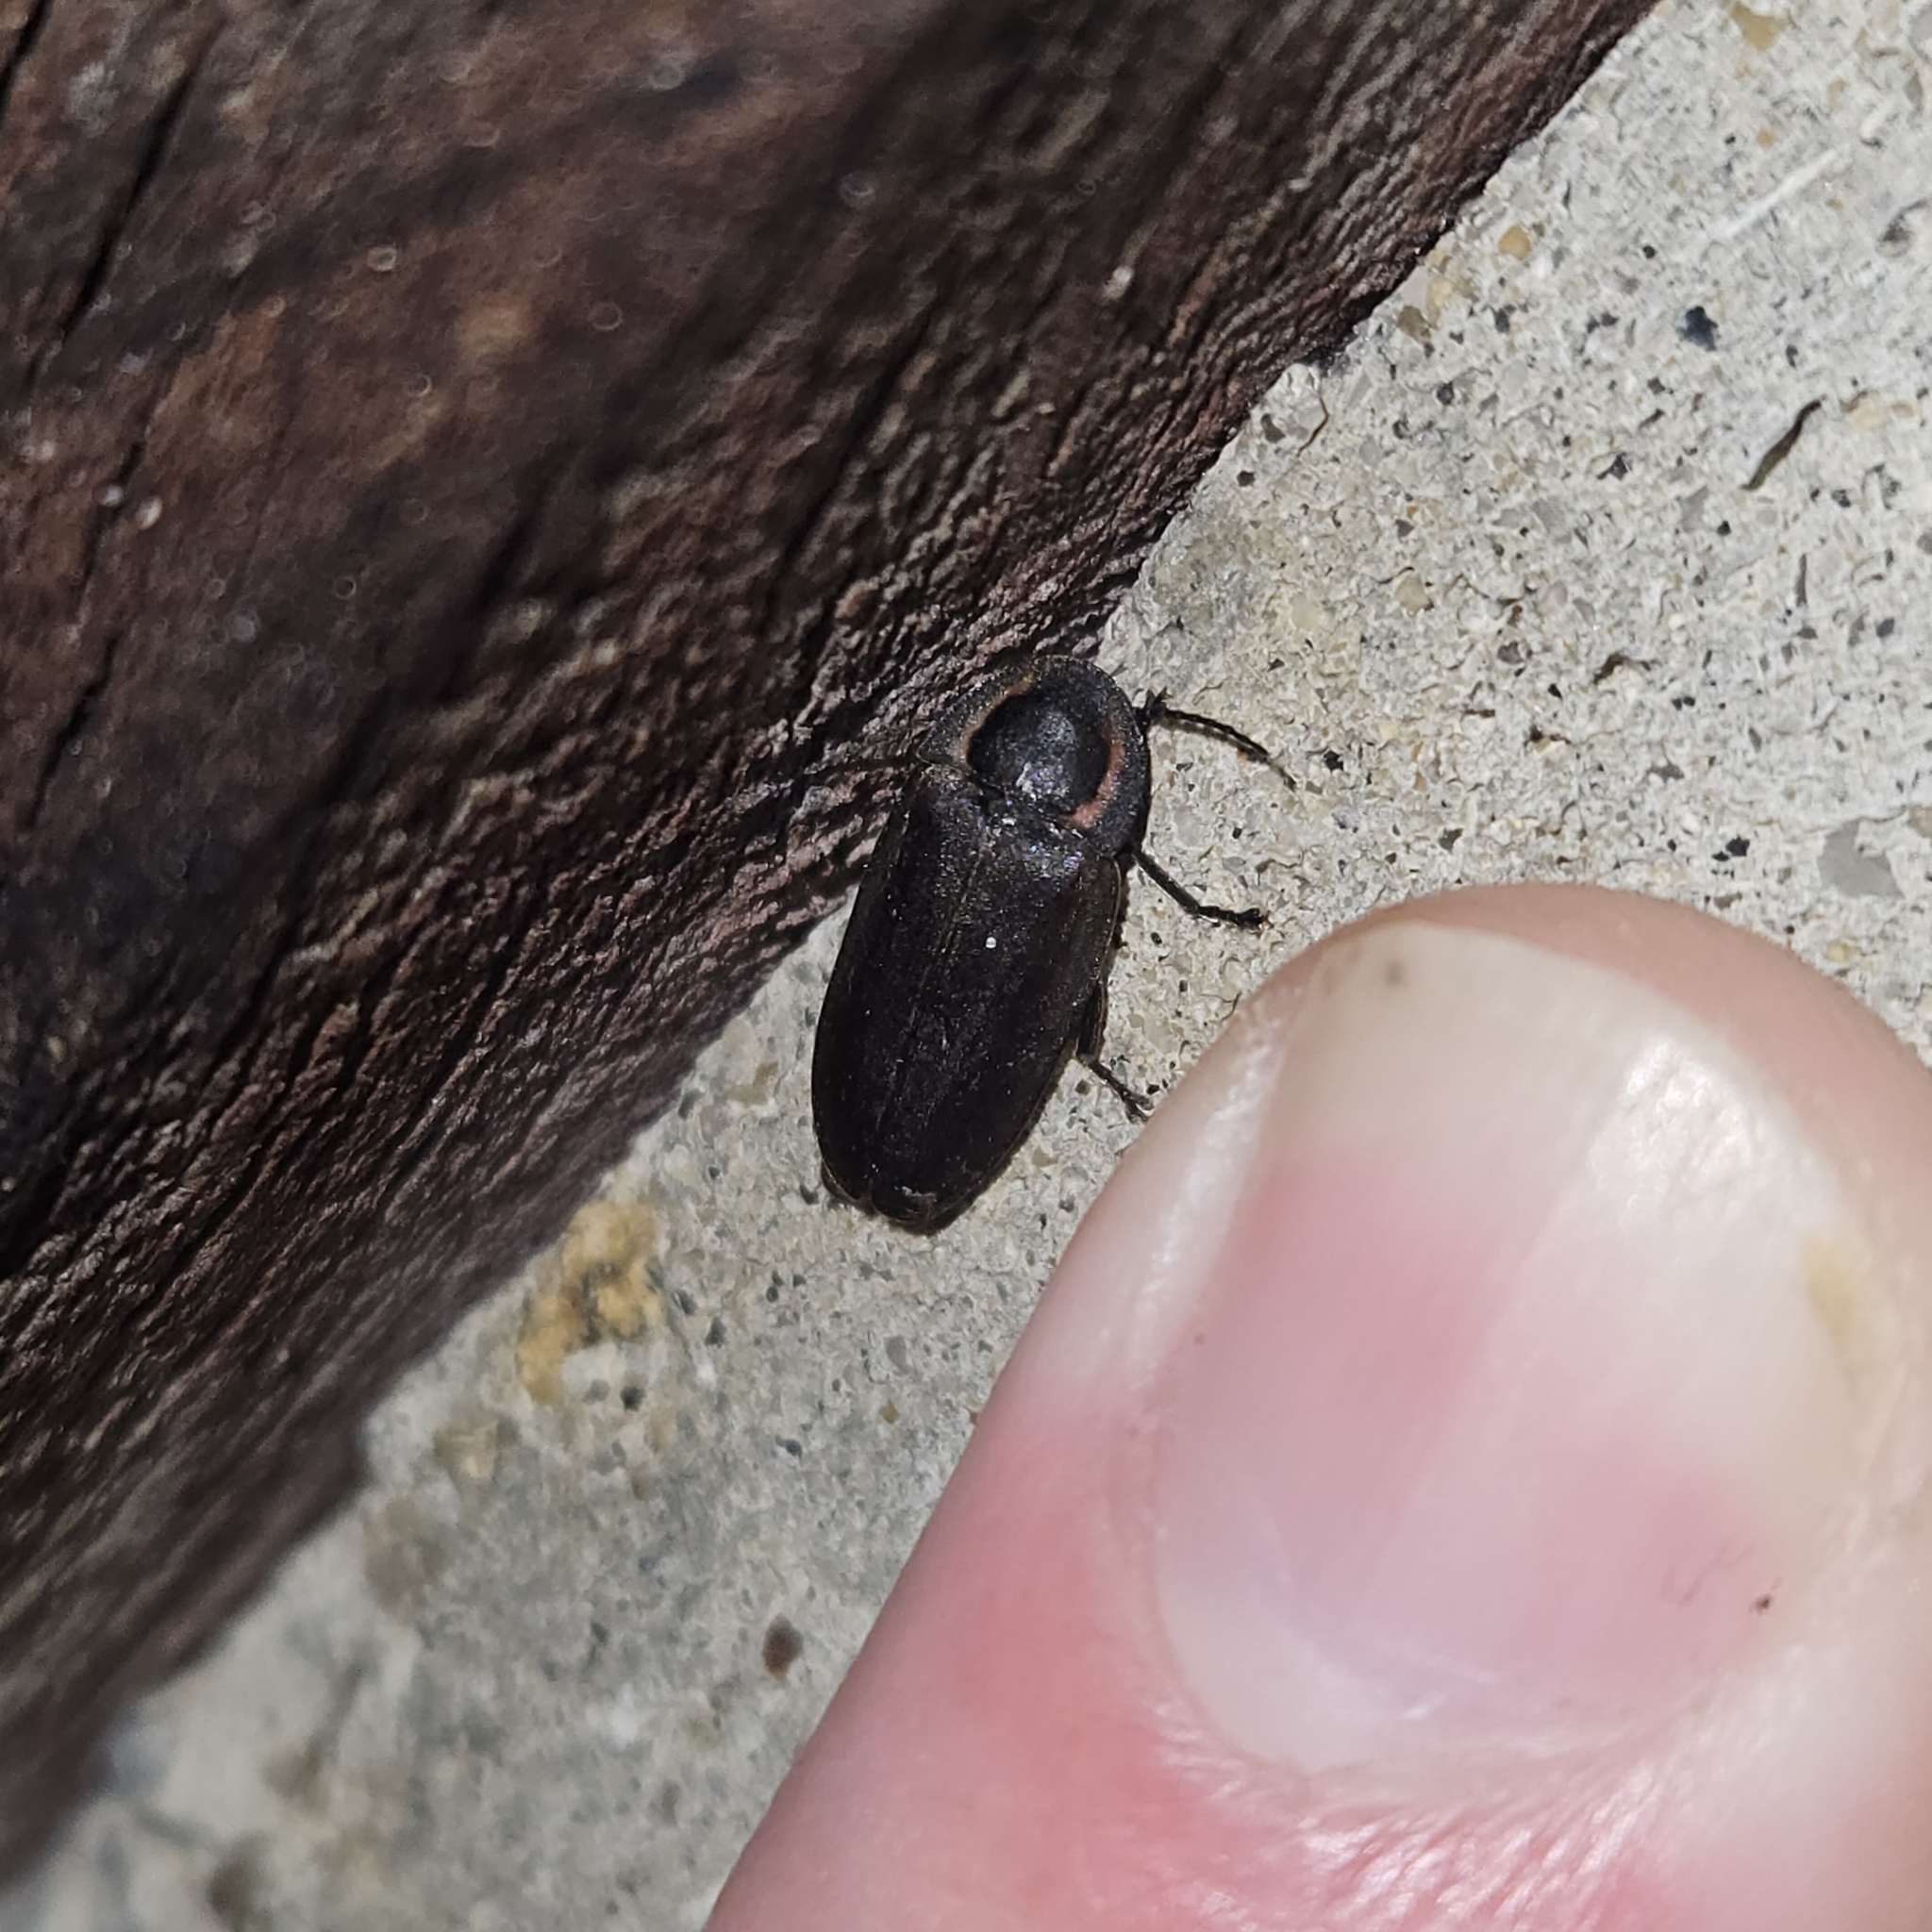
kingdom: Animalia
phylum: Arthropoda
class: Insecta
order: Coleoptera
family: Lampyridae
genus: Photinus
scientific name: Photinus corrusca
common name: Winter firefly
